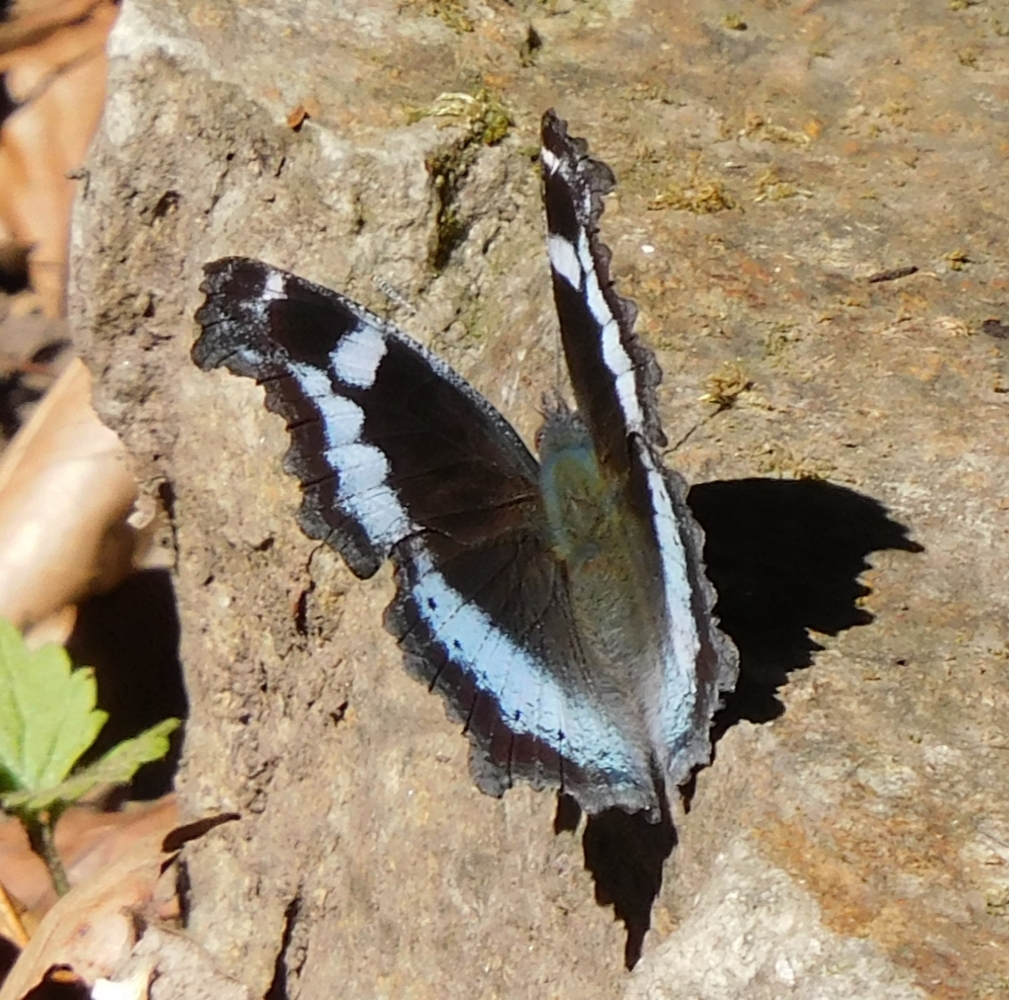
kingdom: Animalia
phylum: Arthropoda
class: Insecta
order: Lepidoptera
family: Nymphalidae
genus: Vanessa
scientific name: Vanessa Kaniska canace
